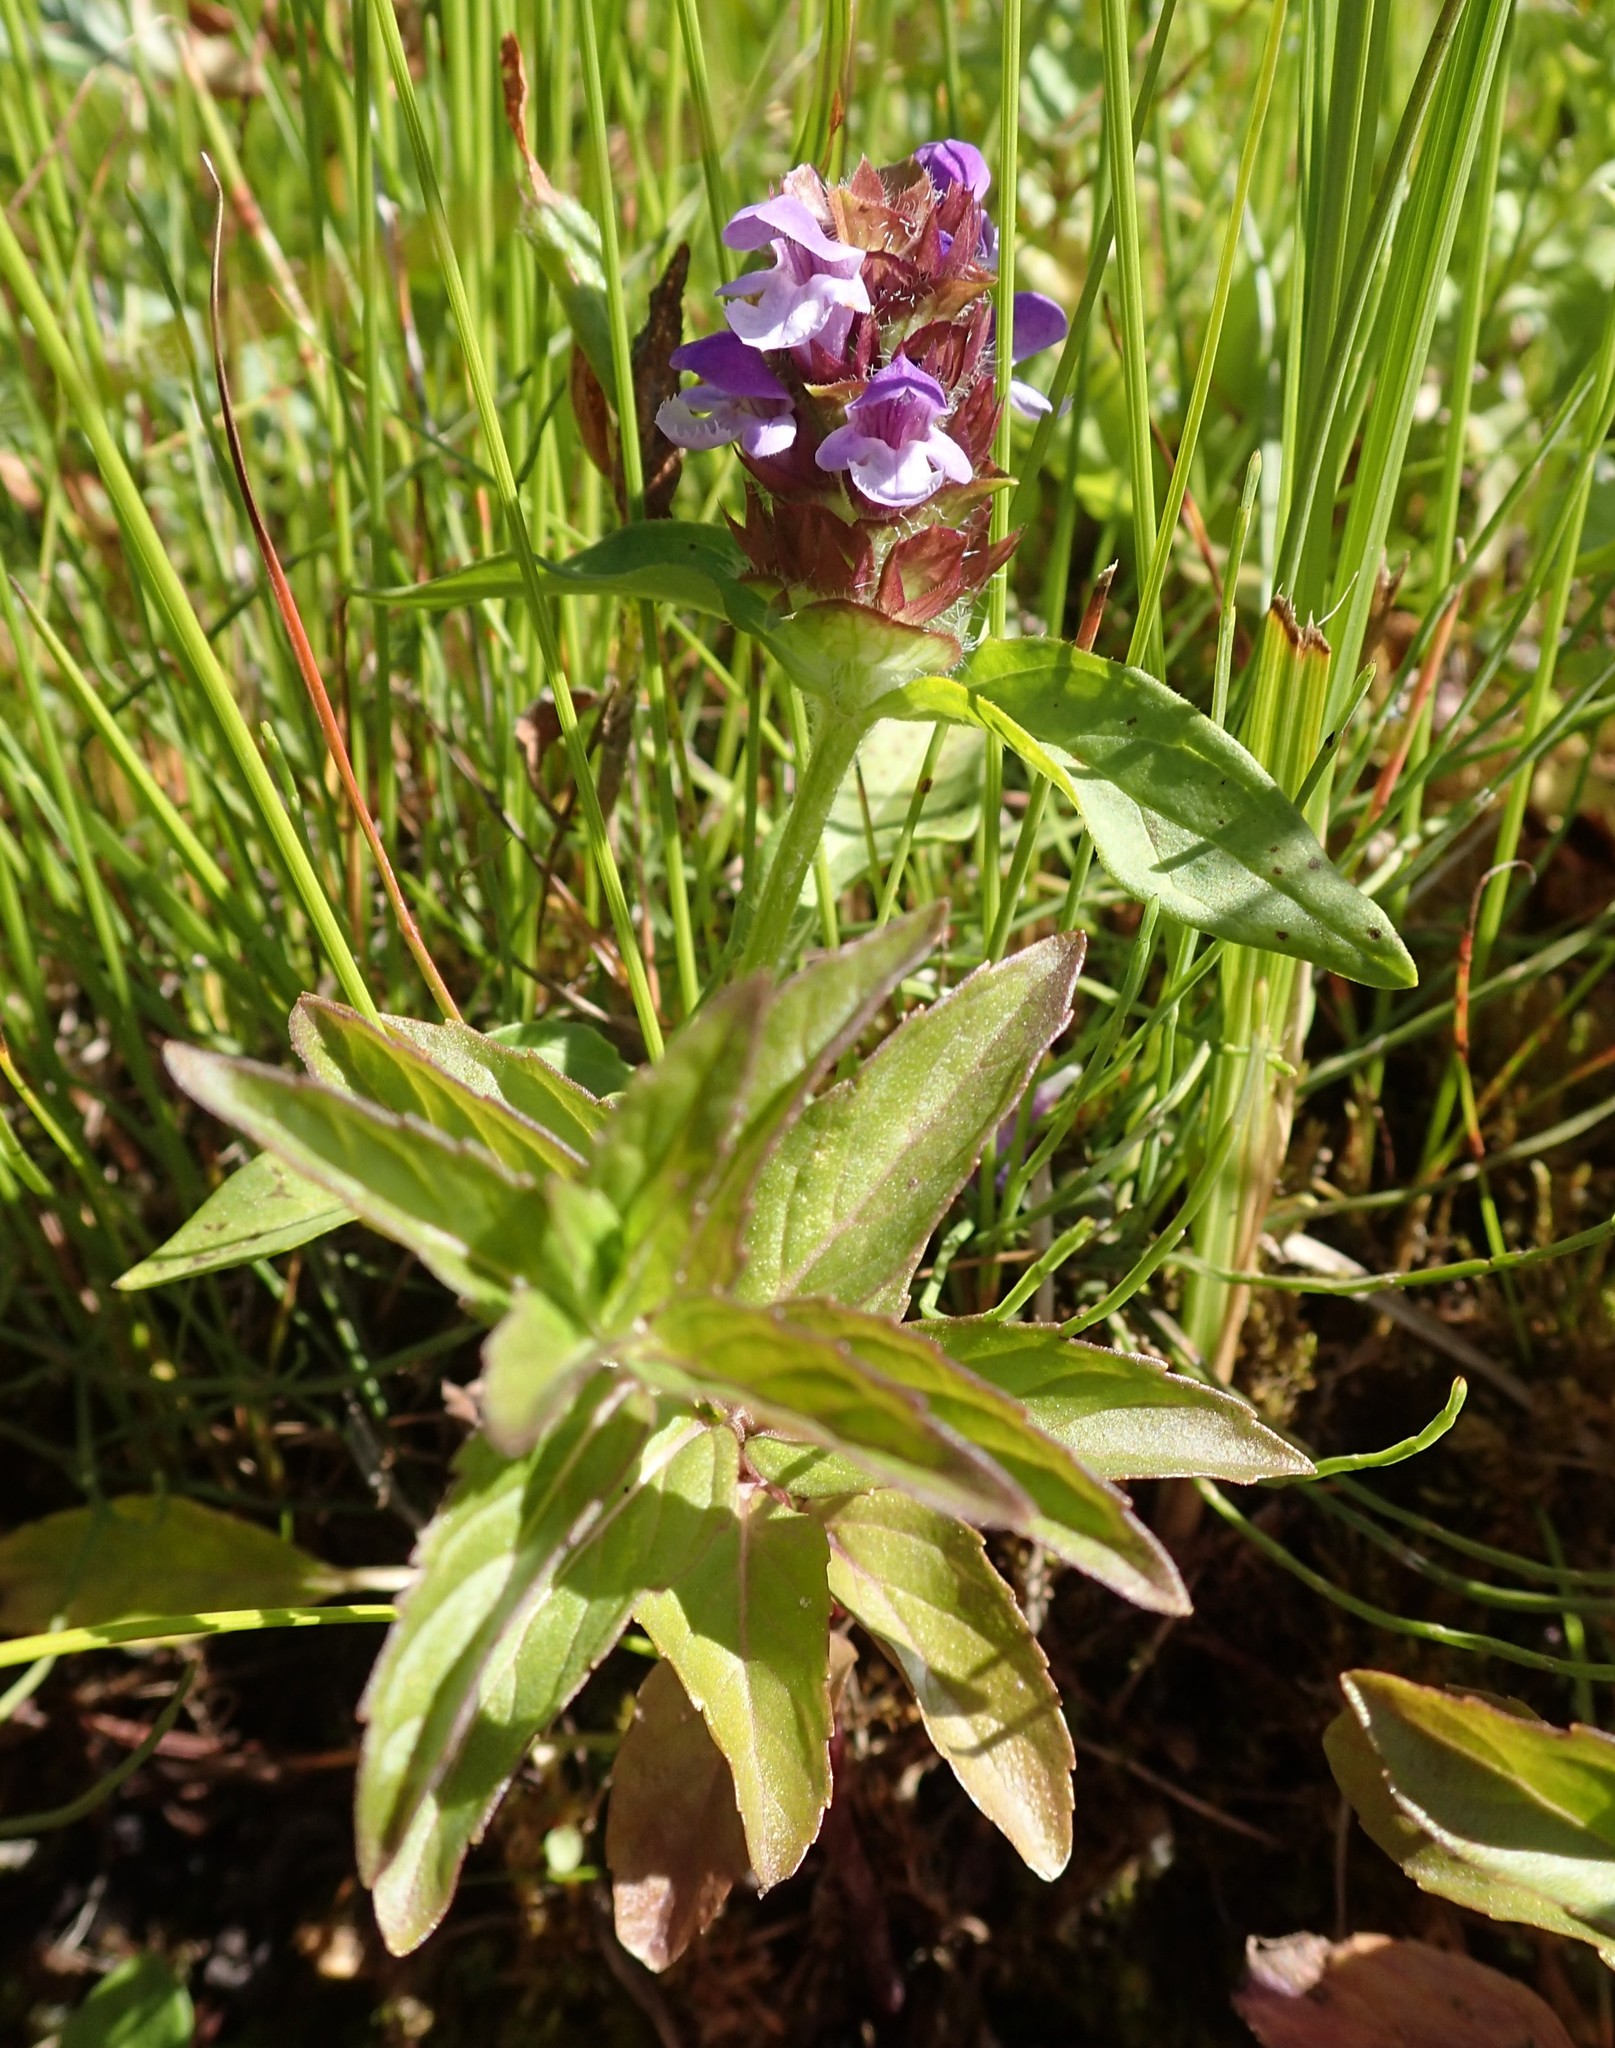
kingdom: Plantae
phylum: Tracheophyta
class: Magnoliopsida
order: Lamiales
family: Lamiaceae
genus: Prunella
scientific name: Prunella vulgaris
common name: Heal-all
